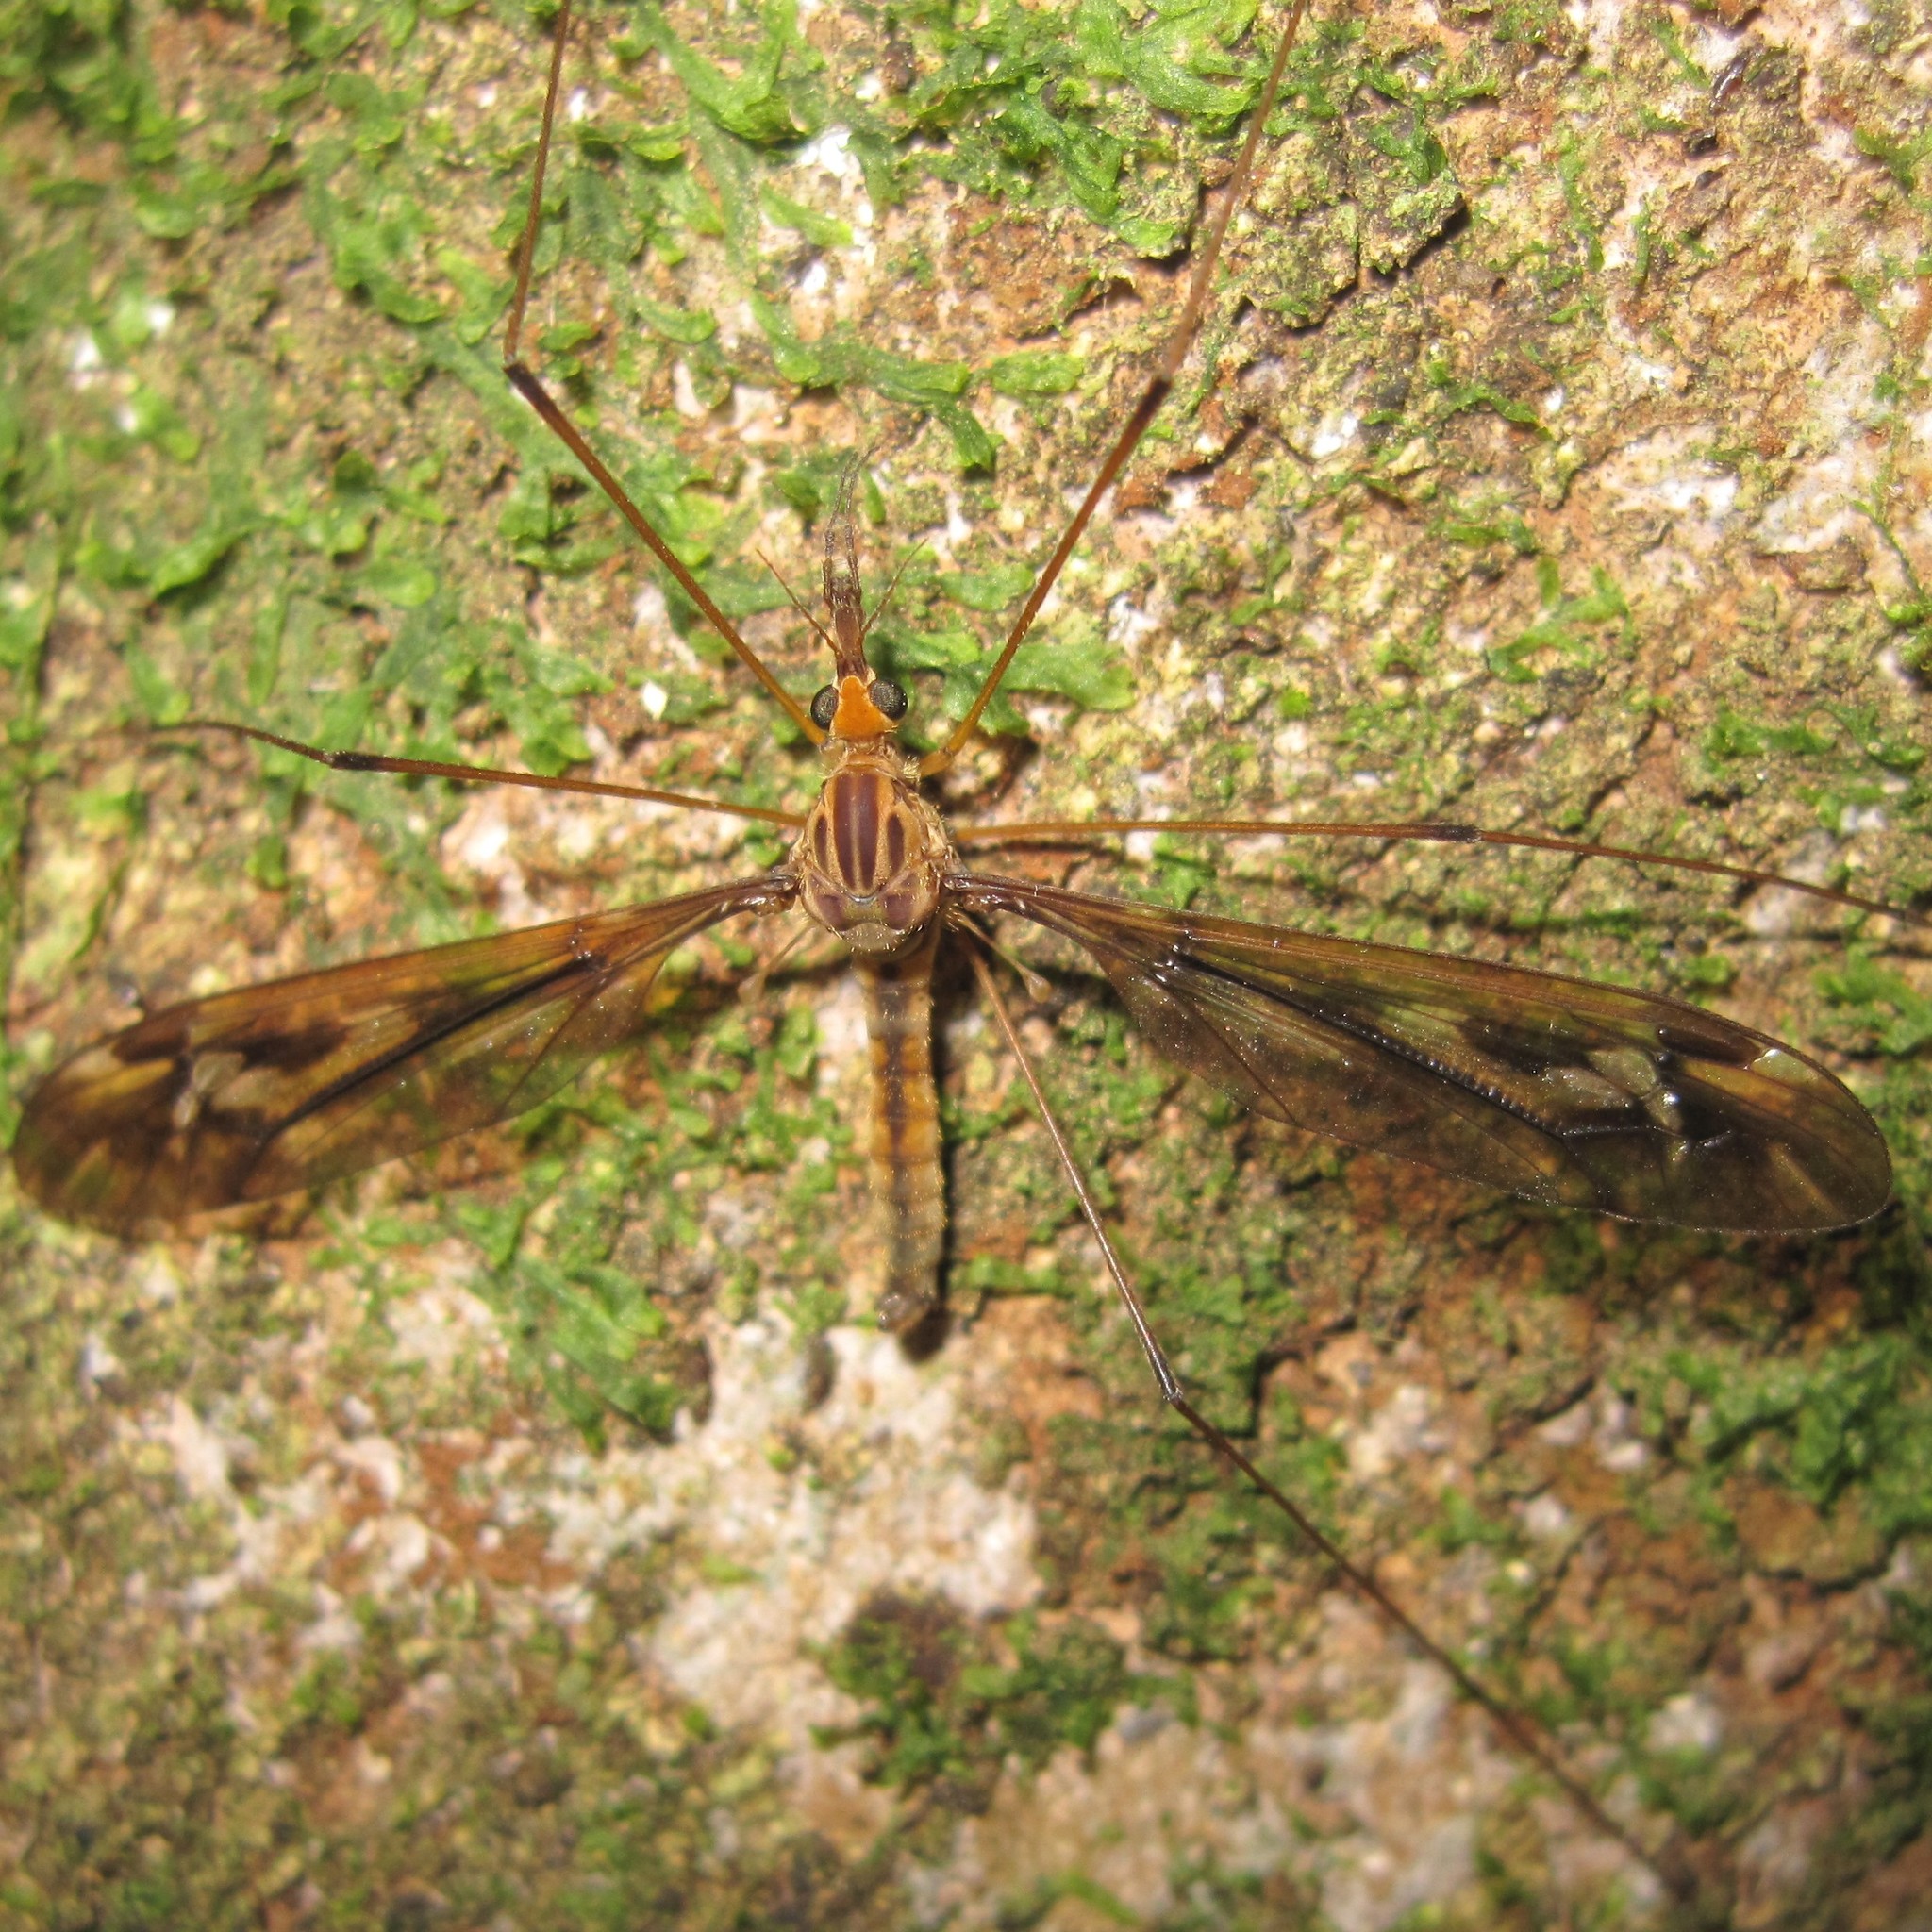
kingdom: Animalia
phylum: Arthropoda
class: Insecta
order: Diptera
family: Tipulidae
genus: Leptotarsus
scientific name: Leptotarsus huttoni
